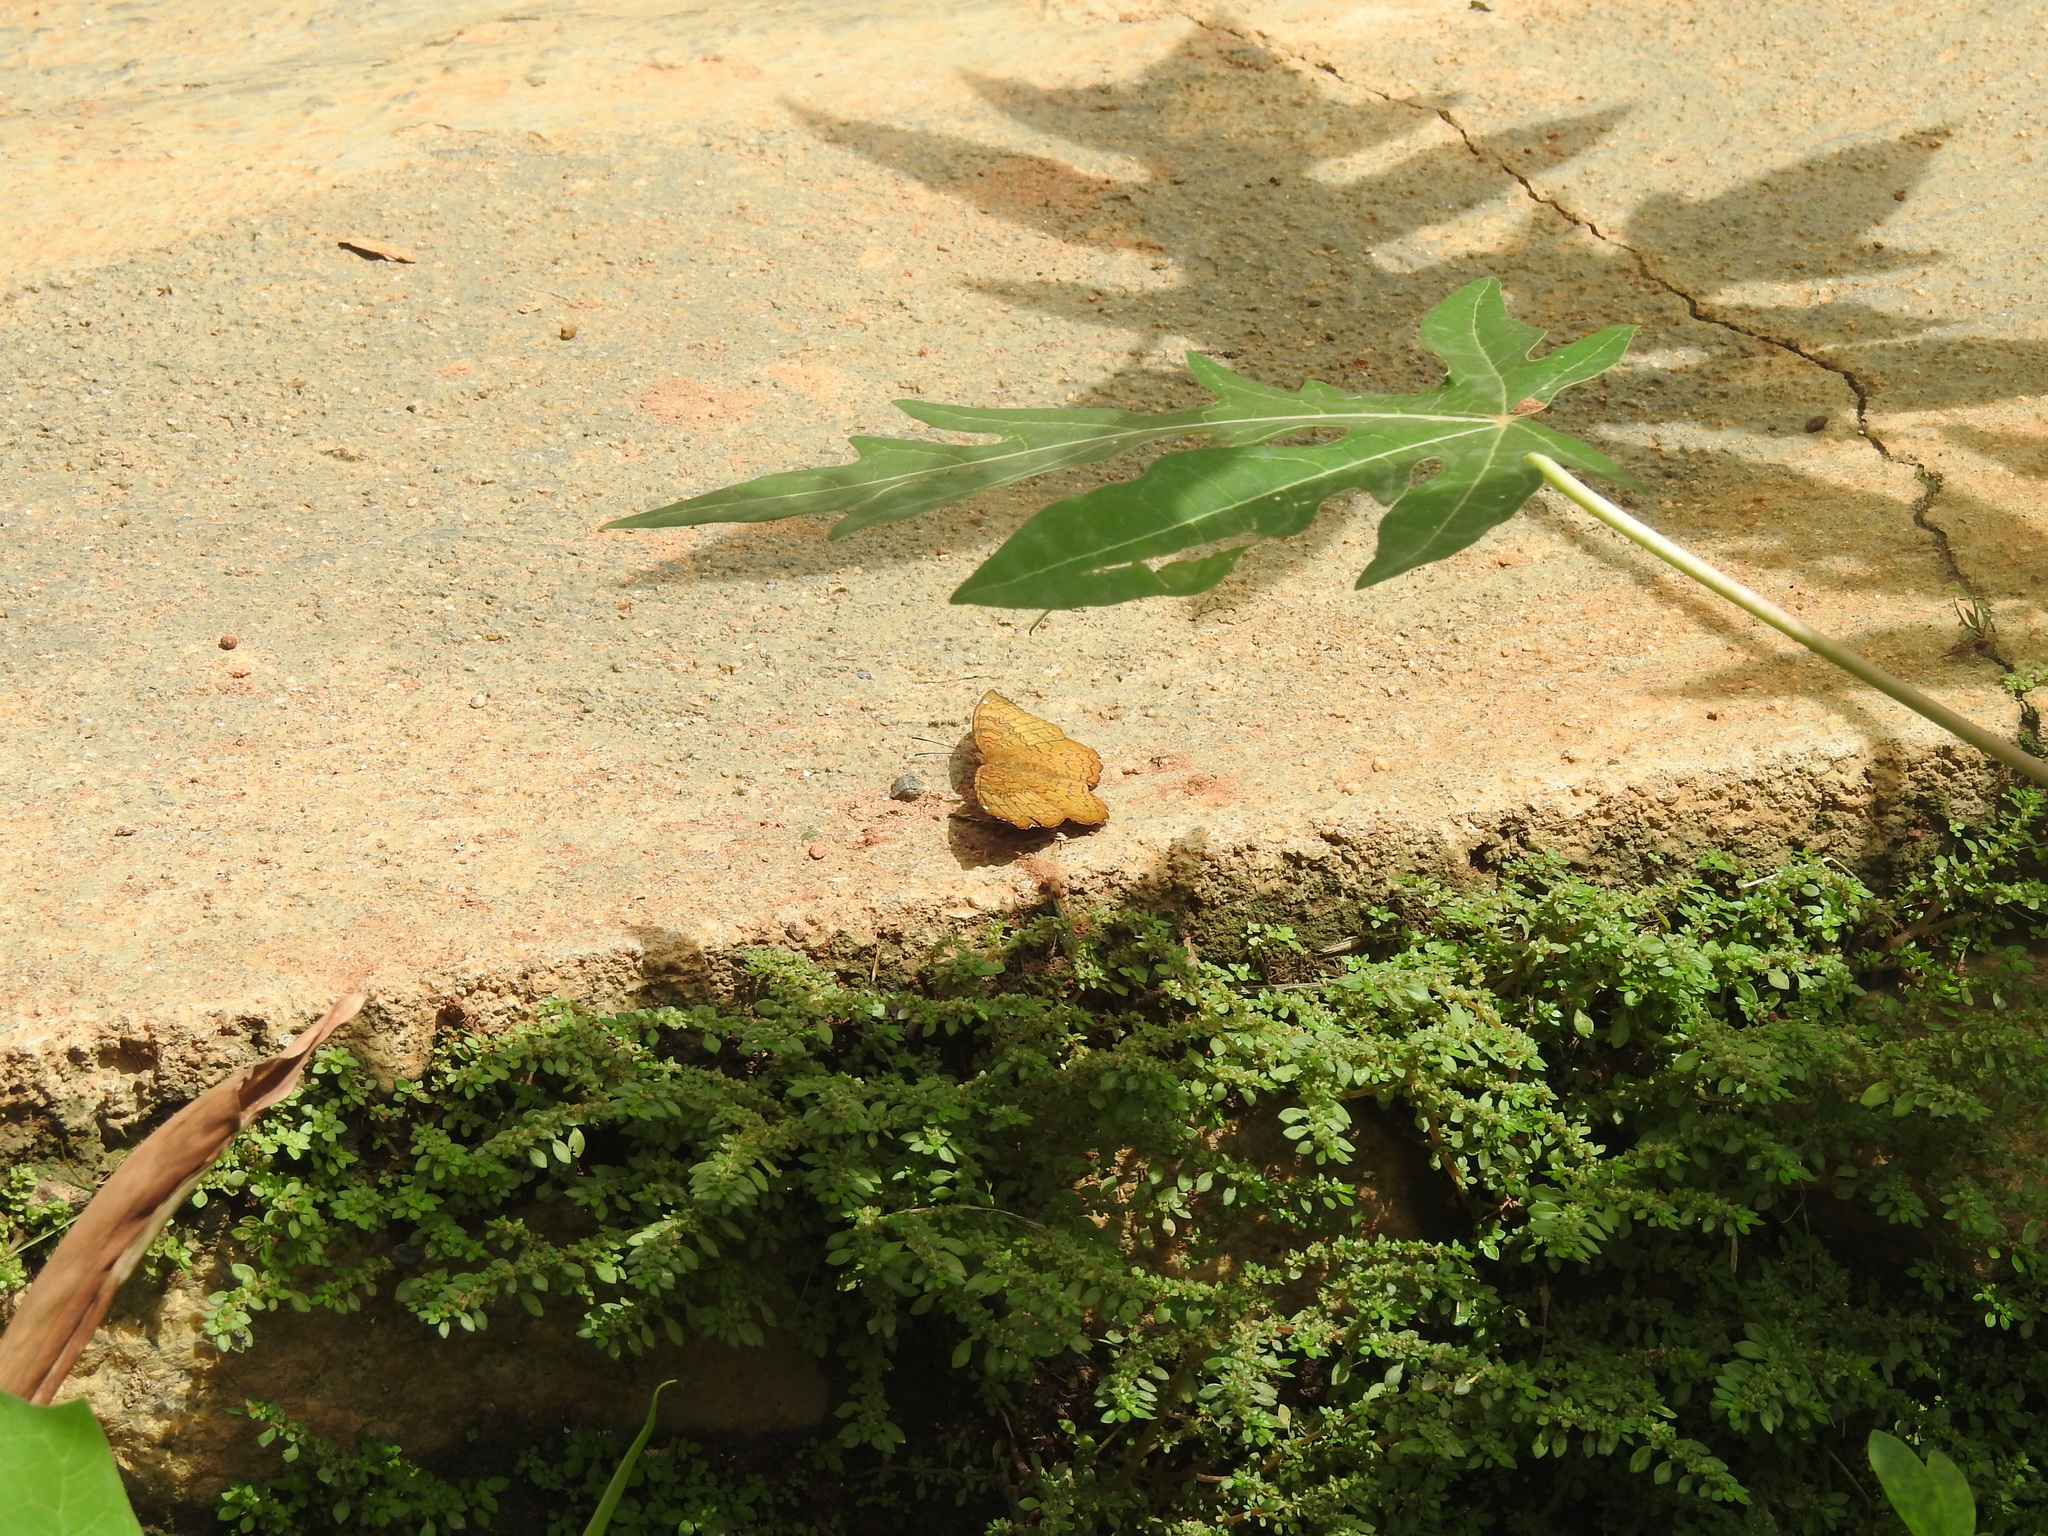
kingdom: Animalia
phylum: Arthropoda
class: Insecta
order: Lepidoptera
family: Nymphalidae
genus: Ariadne
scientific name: Ariadne merione
